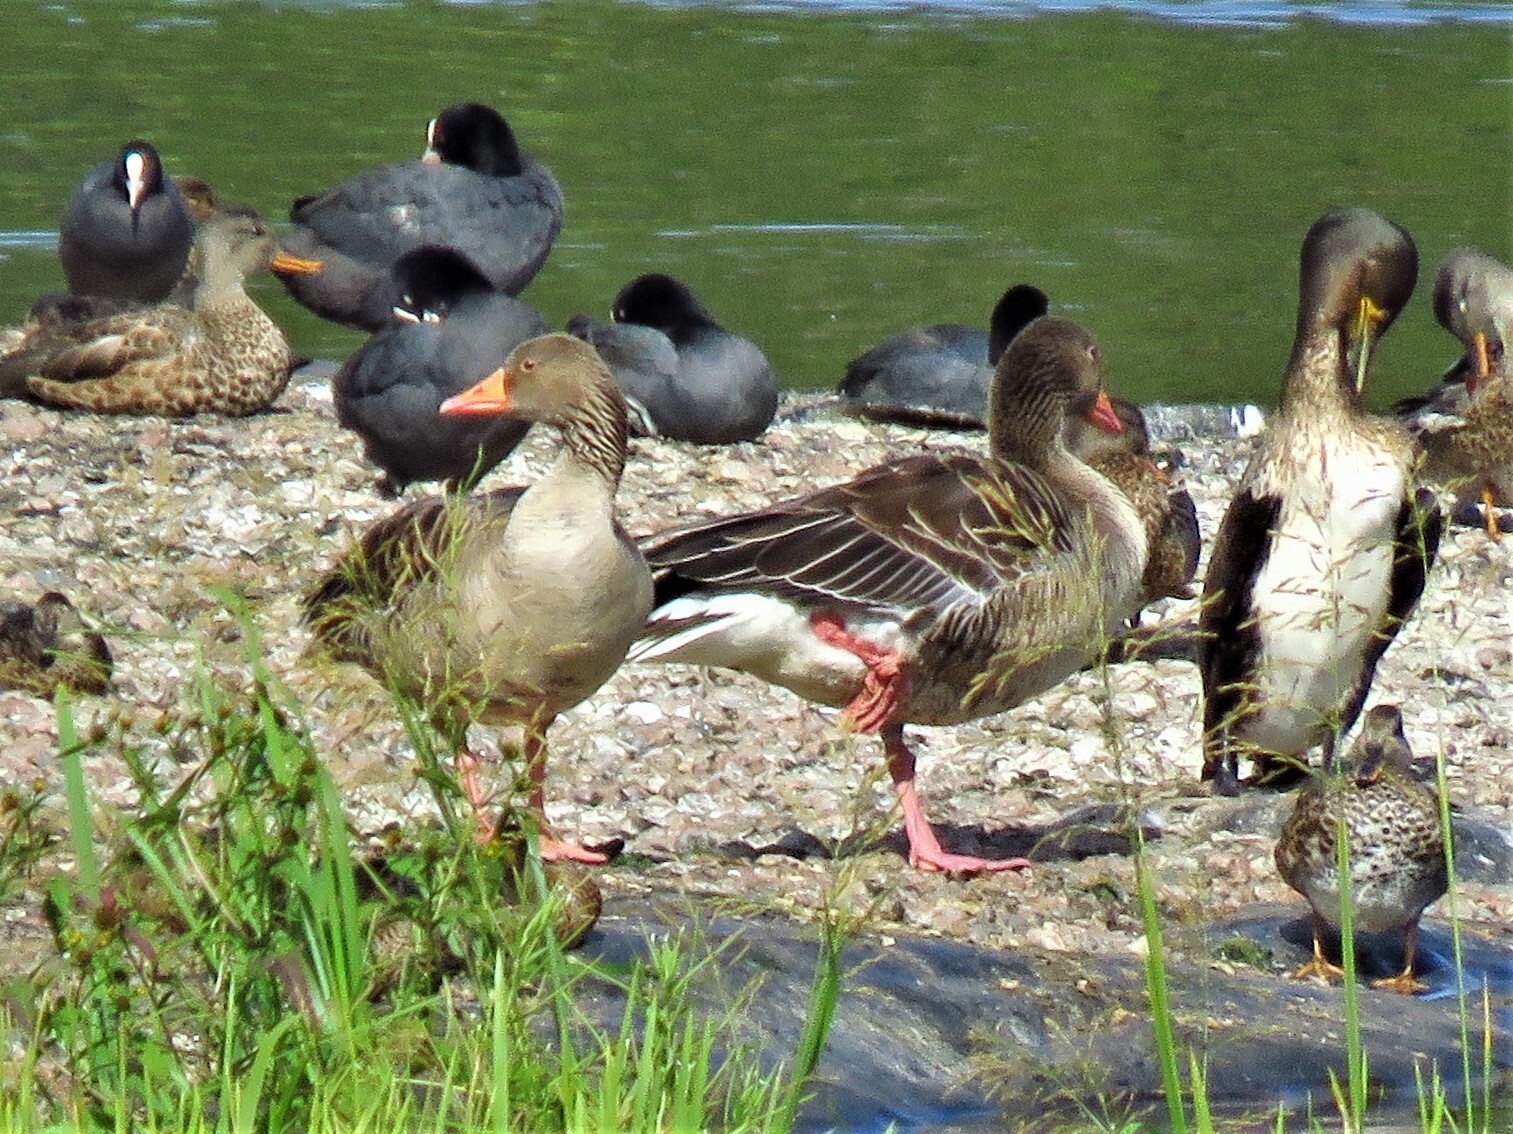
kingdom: Animalia
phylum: Chordata
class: Aves
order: Anseriformes
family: Anatidae
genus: Anser
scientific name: Anser anser
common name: Greylag goose
